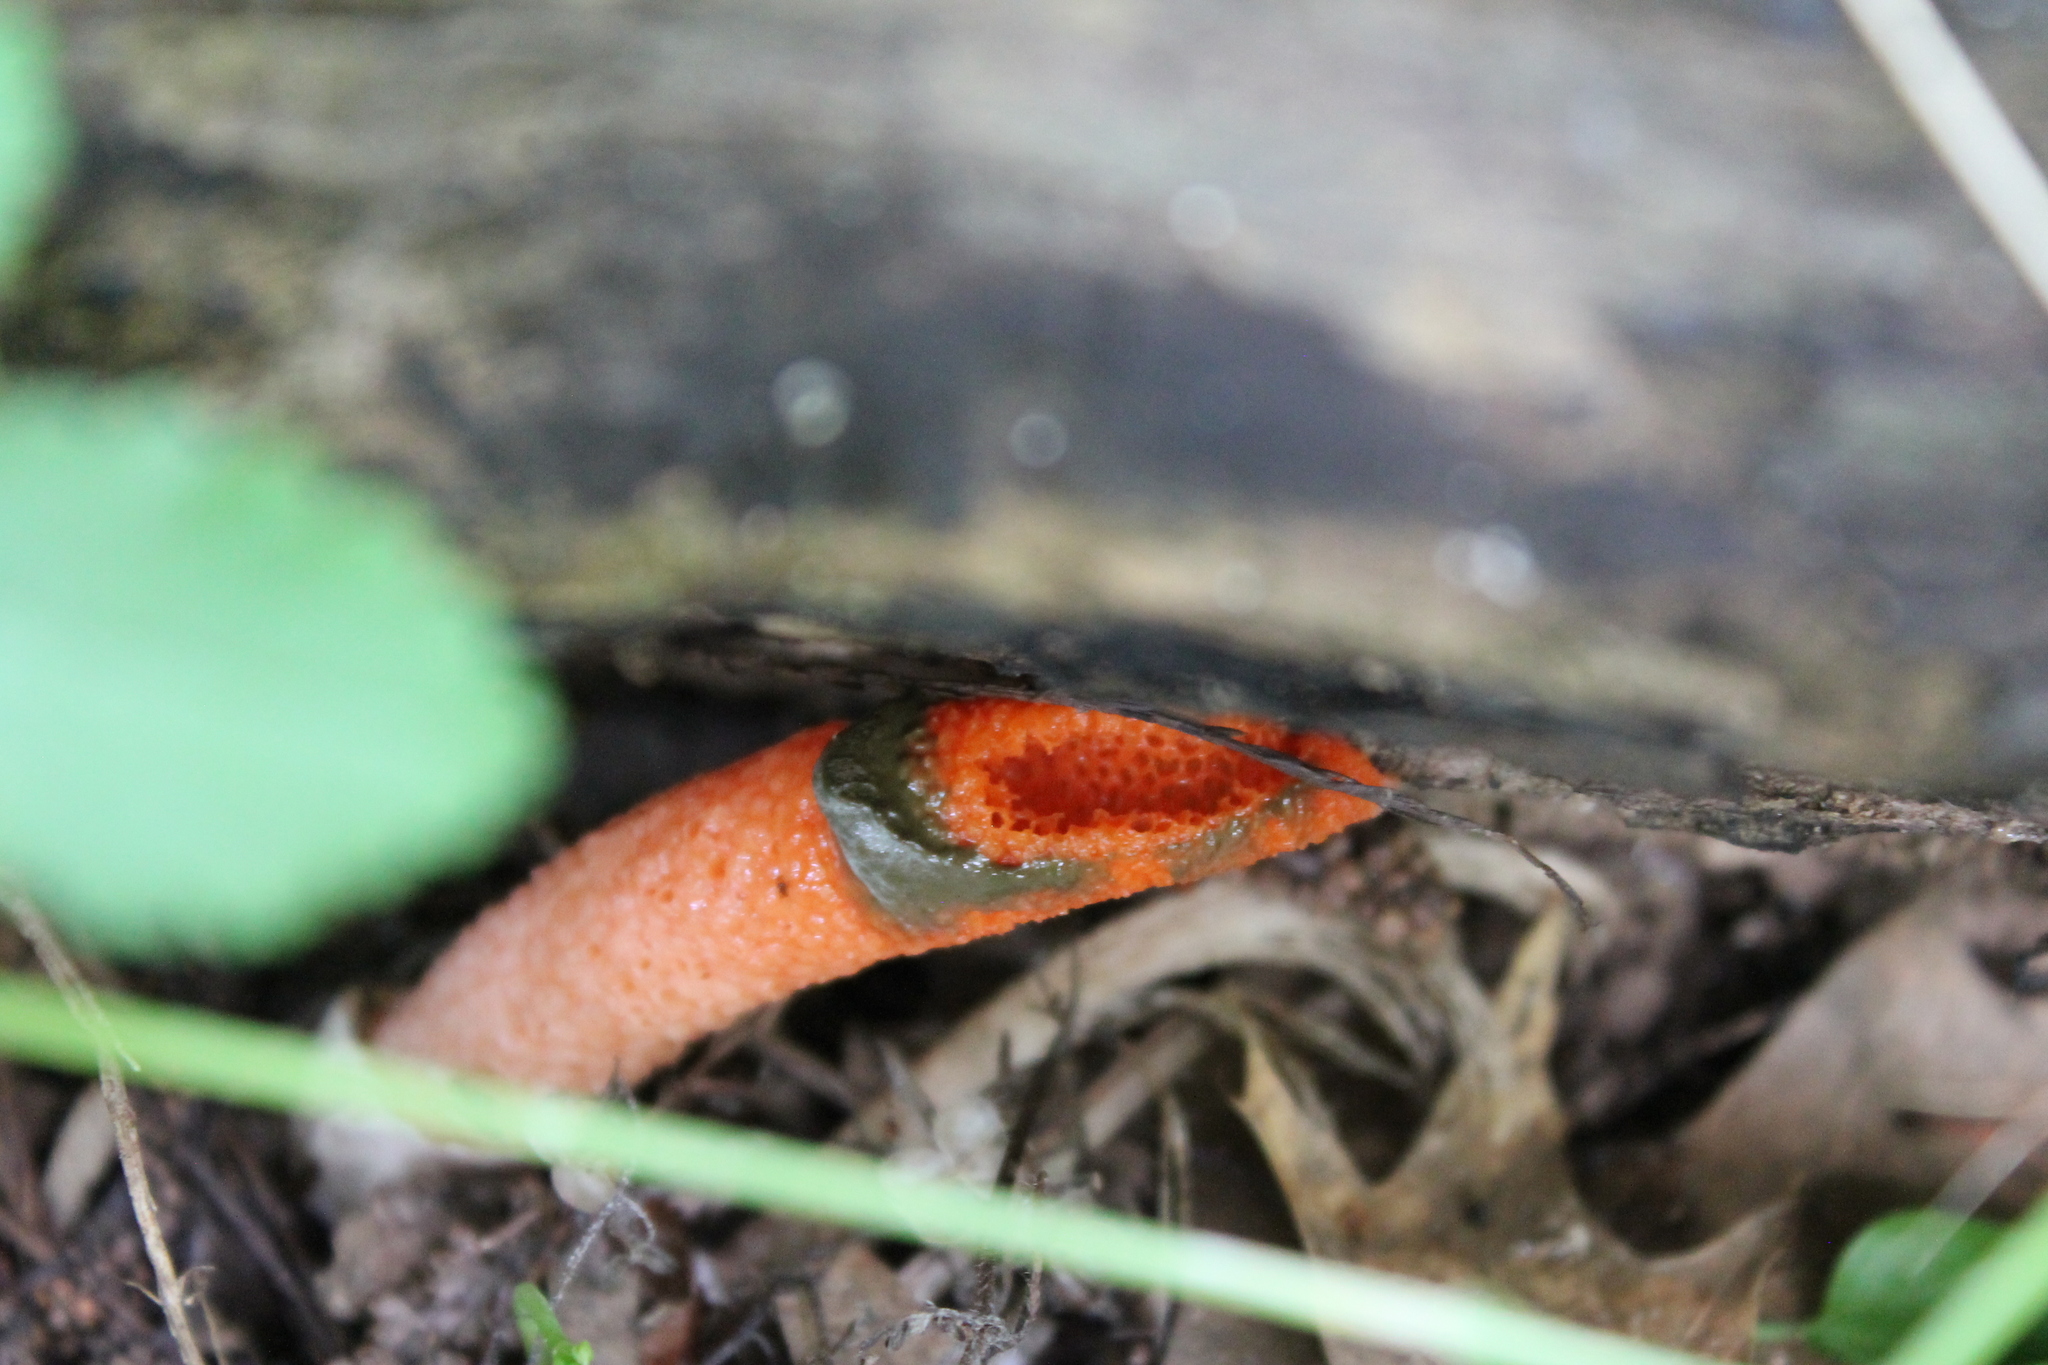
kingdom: Fungi
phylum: Basidiomycota
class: Agaricomycetes
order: Phallales
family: Phallaceae
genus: Mutinus
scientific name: Mutinus elegans
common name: Devil's dipstick
